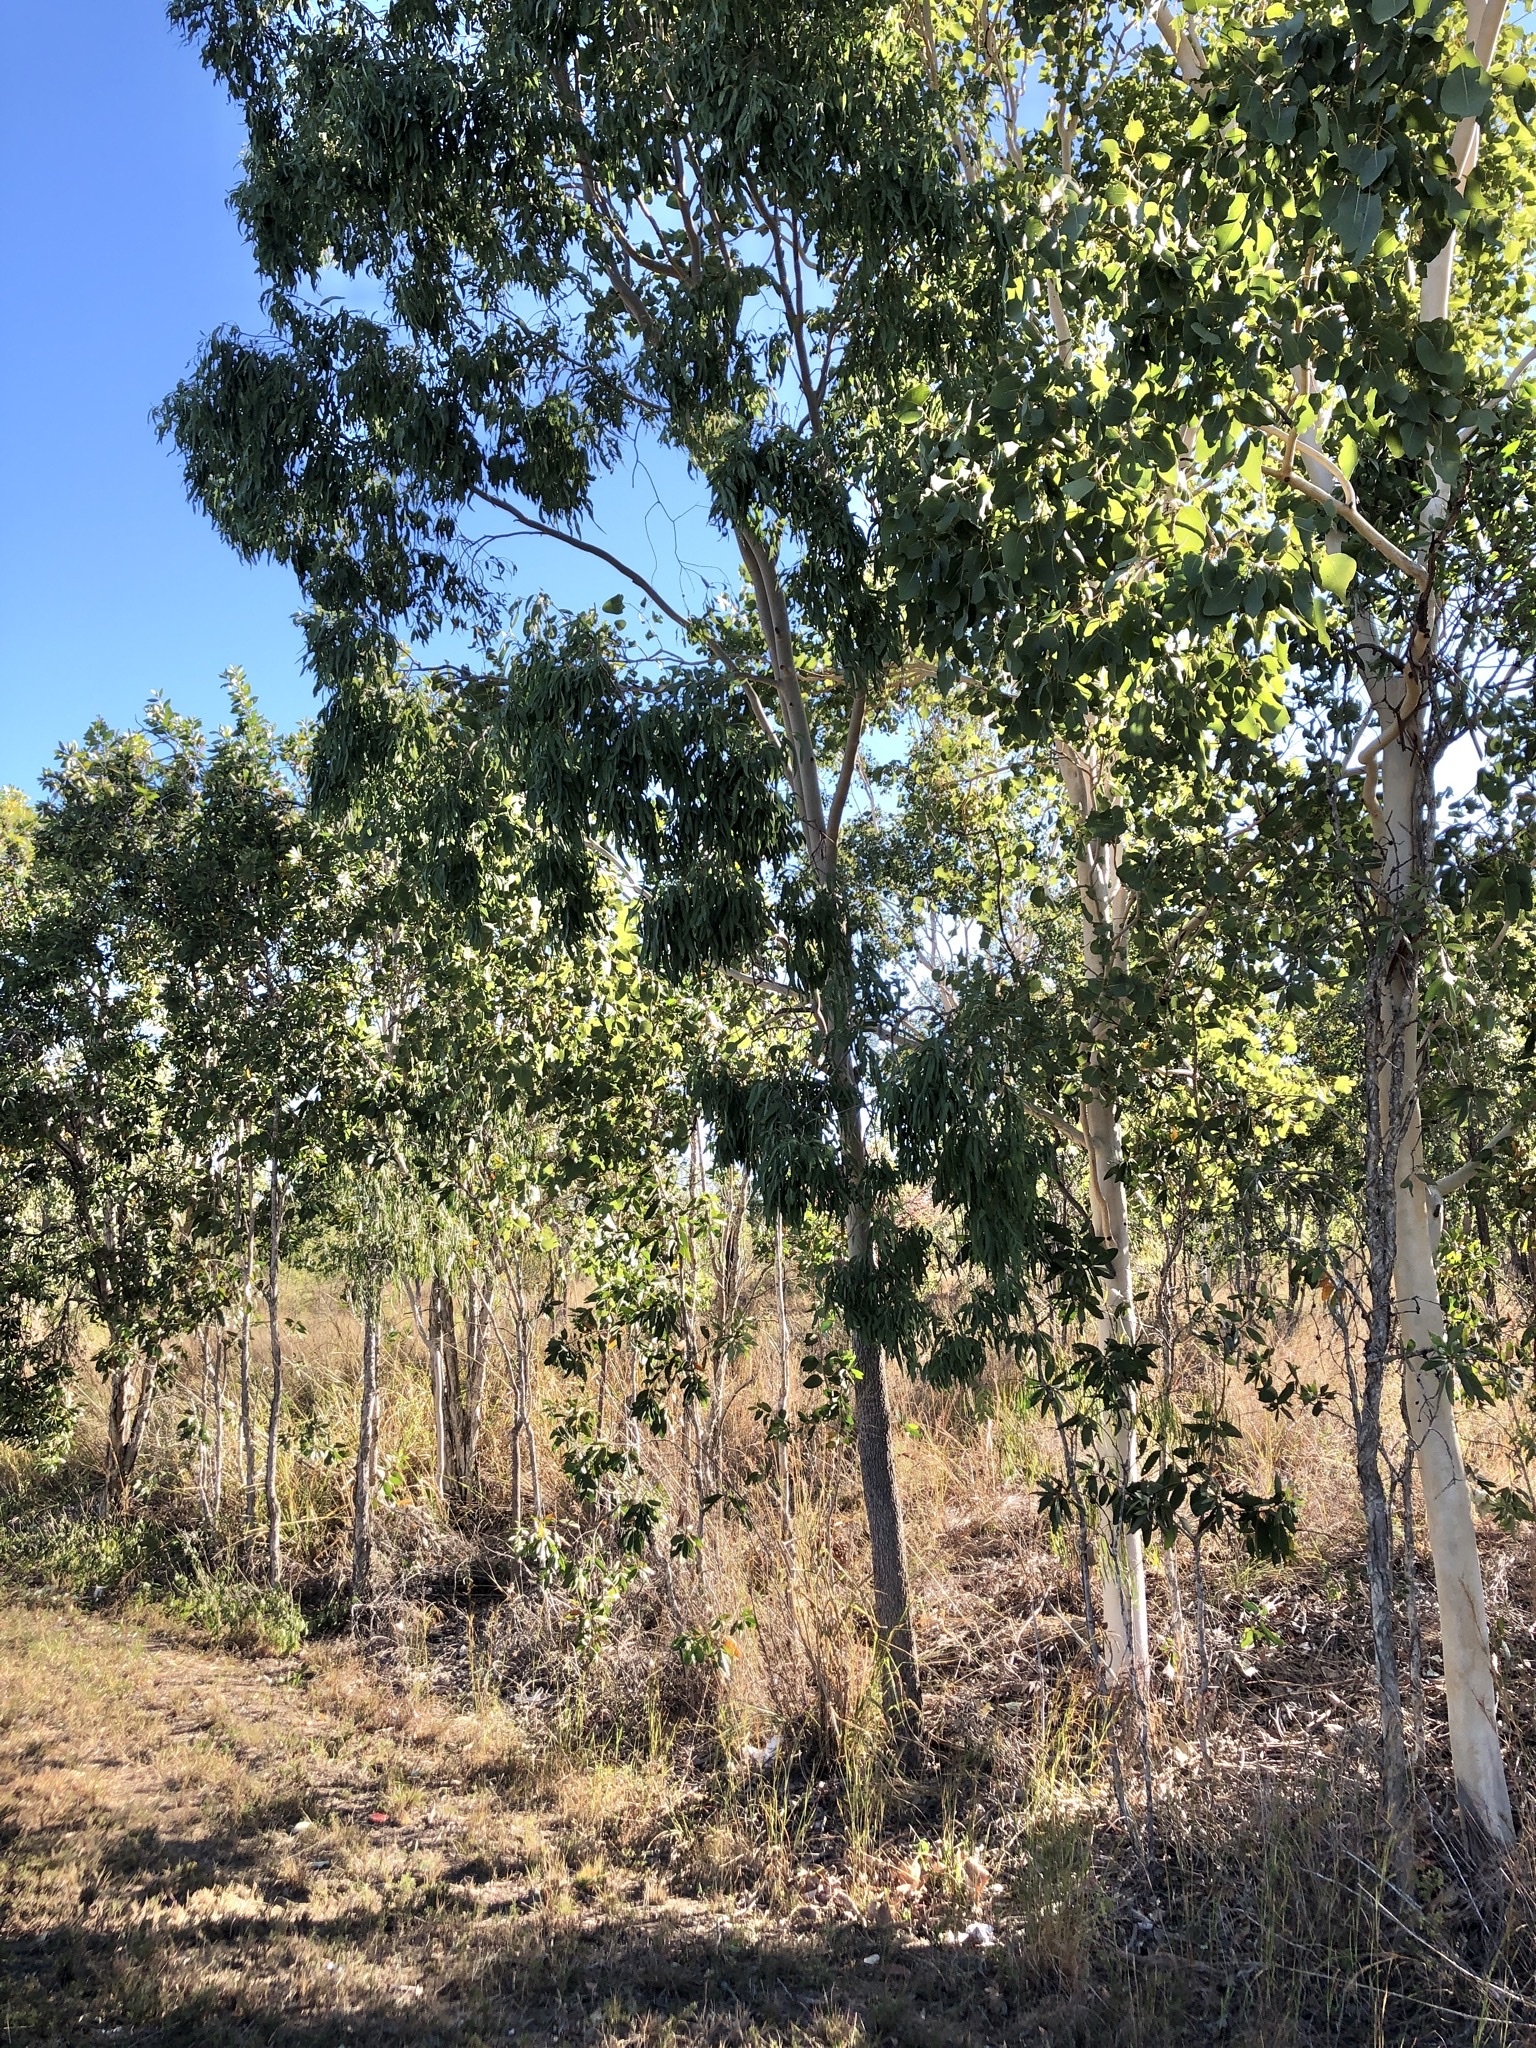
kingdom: Plantae
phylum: Tracheophyta
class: Magnoliopsida
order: Myrtales
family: Myrtaceae
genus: Corymbia
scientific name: Corymbia tessellaris
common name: Carbeen
